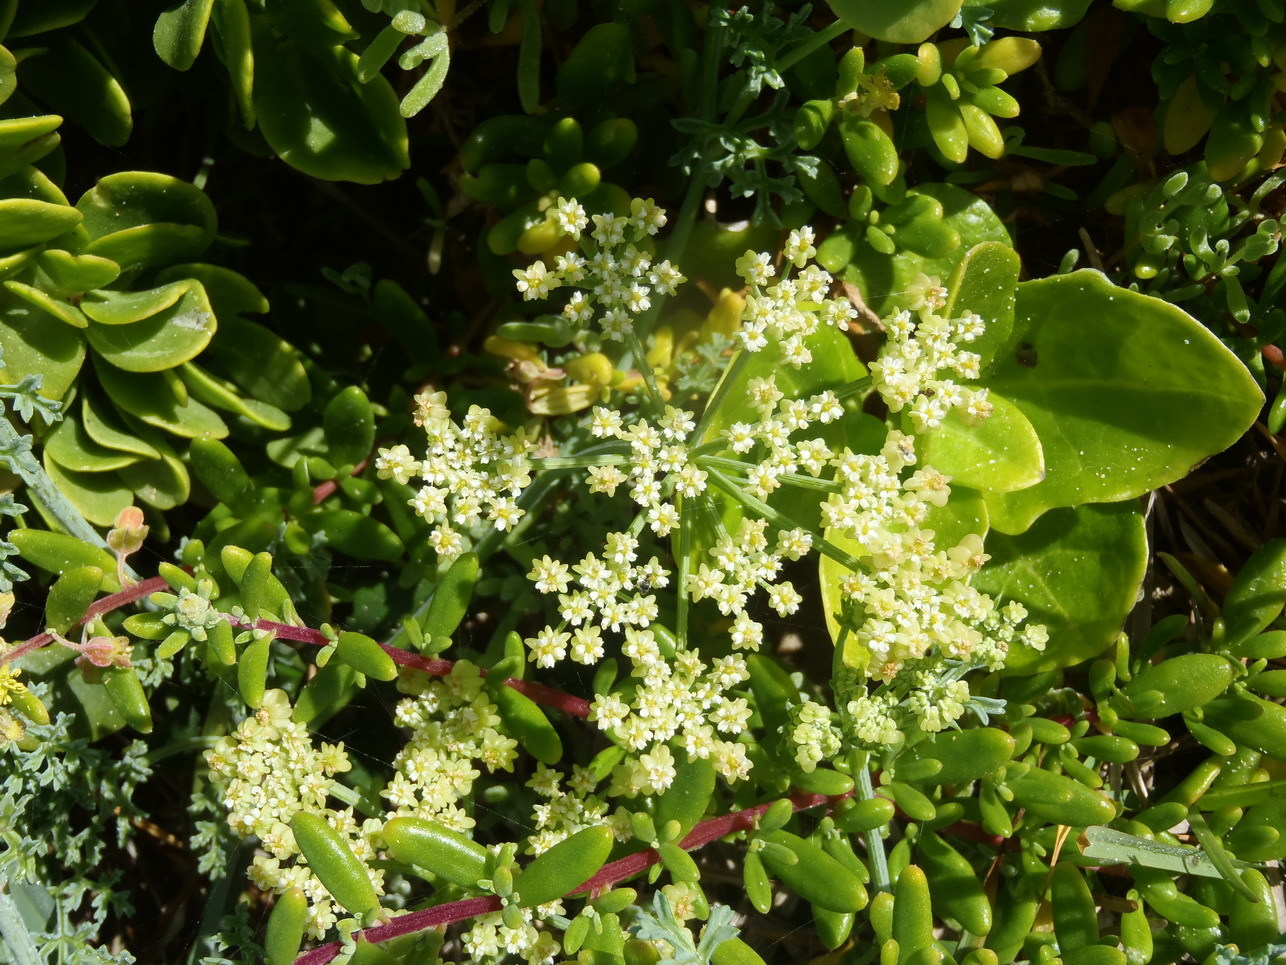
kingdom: Plantae
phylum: Tracheophyta
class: Magnoliopsida
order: Apiales
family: Apiaceae
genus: Dasispermum
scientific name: Dasispermum suffruticosum
